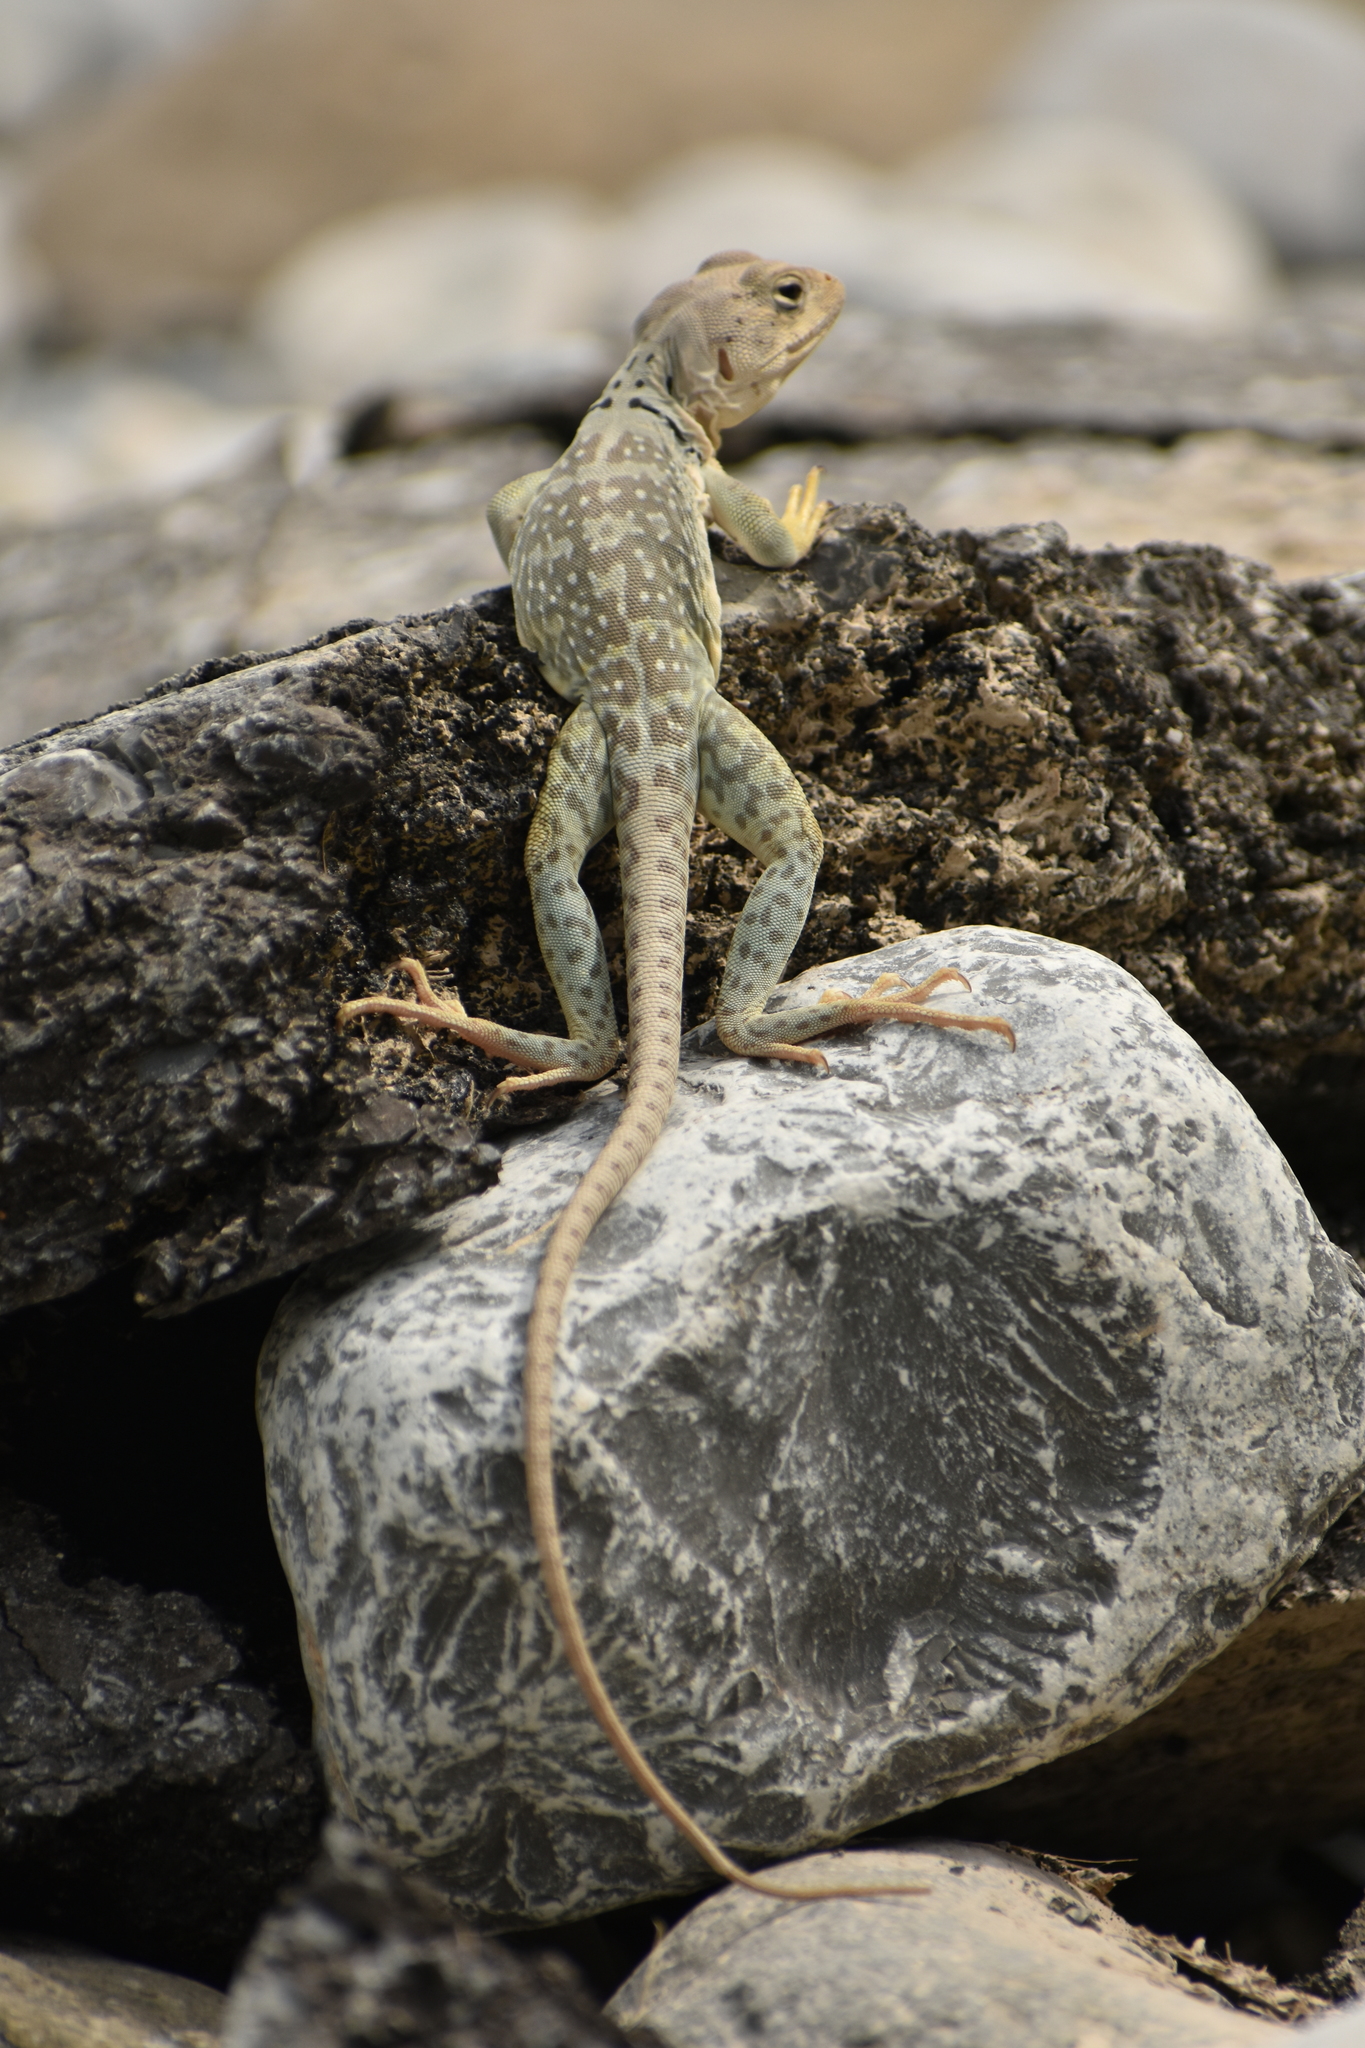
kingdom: Animalia
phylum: Chordata
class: Squamata
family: Crotaphytidae
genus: Crotaphytus
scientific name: Crotaphytus collaris
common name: Collared lizard
